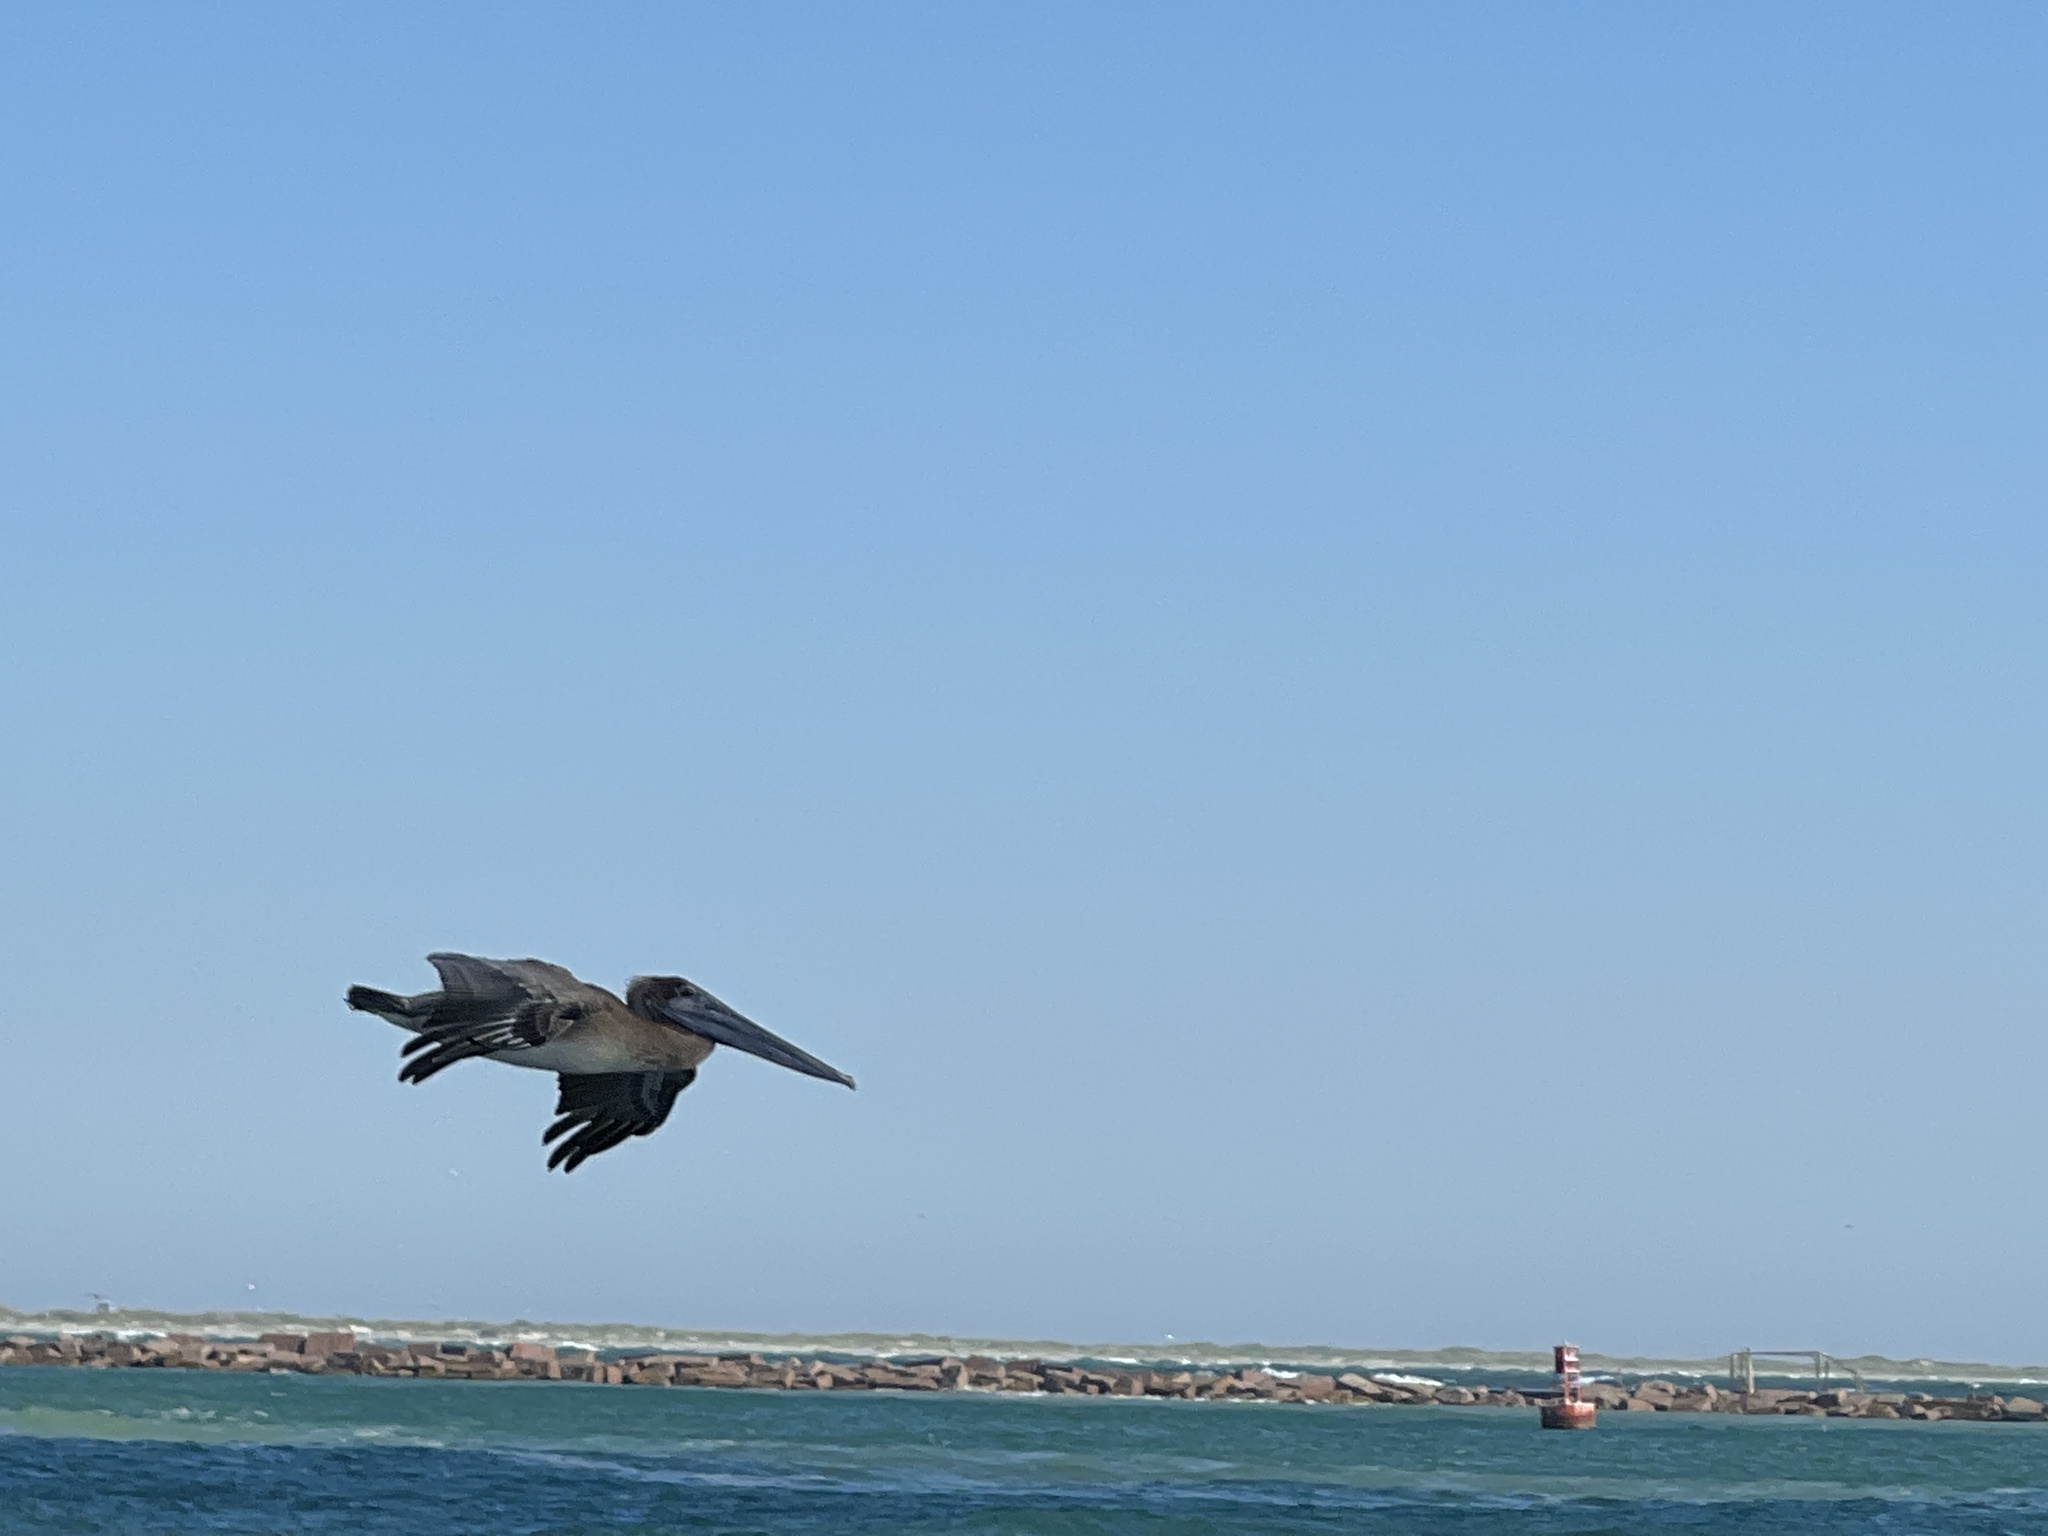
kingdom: Animalia
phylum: Chordata
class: Aves
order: Pelecaniformes
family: Pelecanidae
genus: Pelecanus
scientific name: Pelecanus occidentalis
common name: Brown pelican
